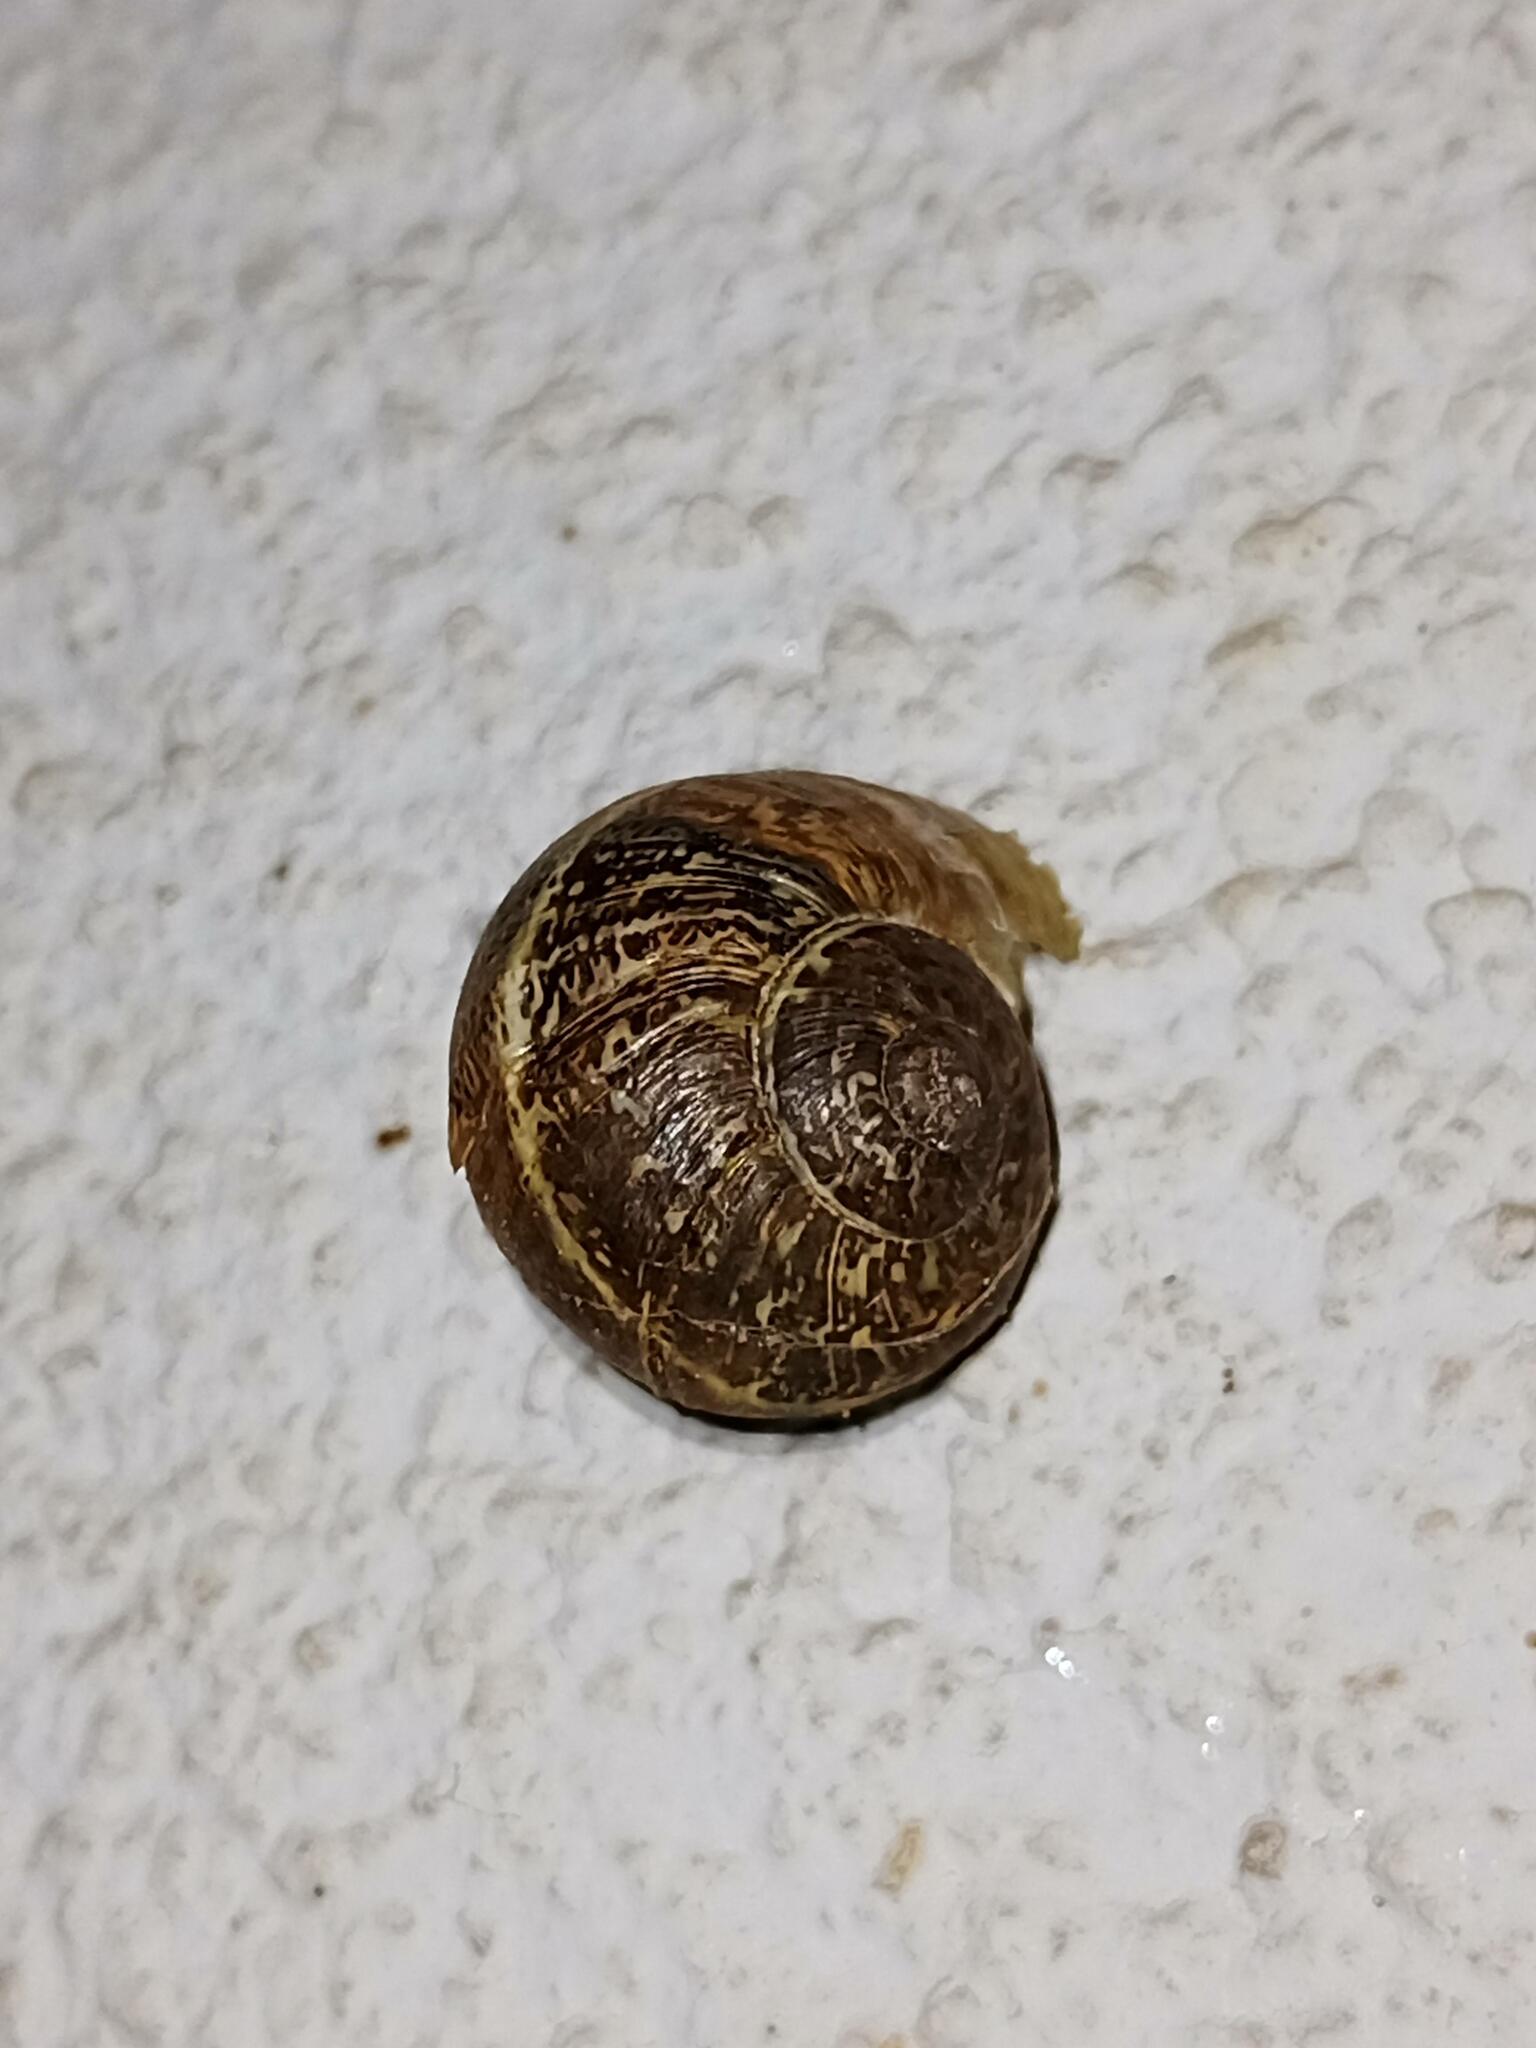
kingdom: Animalia
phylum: Mollusca
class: Gastropoda
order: Stylommatophora
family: Helicidae
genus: Cornu
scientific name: Cornu aspersum
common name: Brown garden snail
